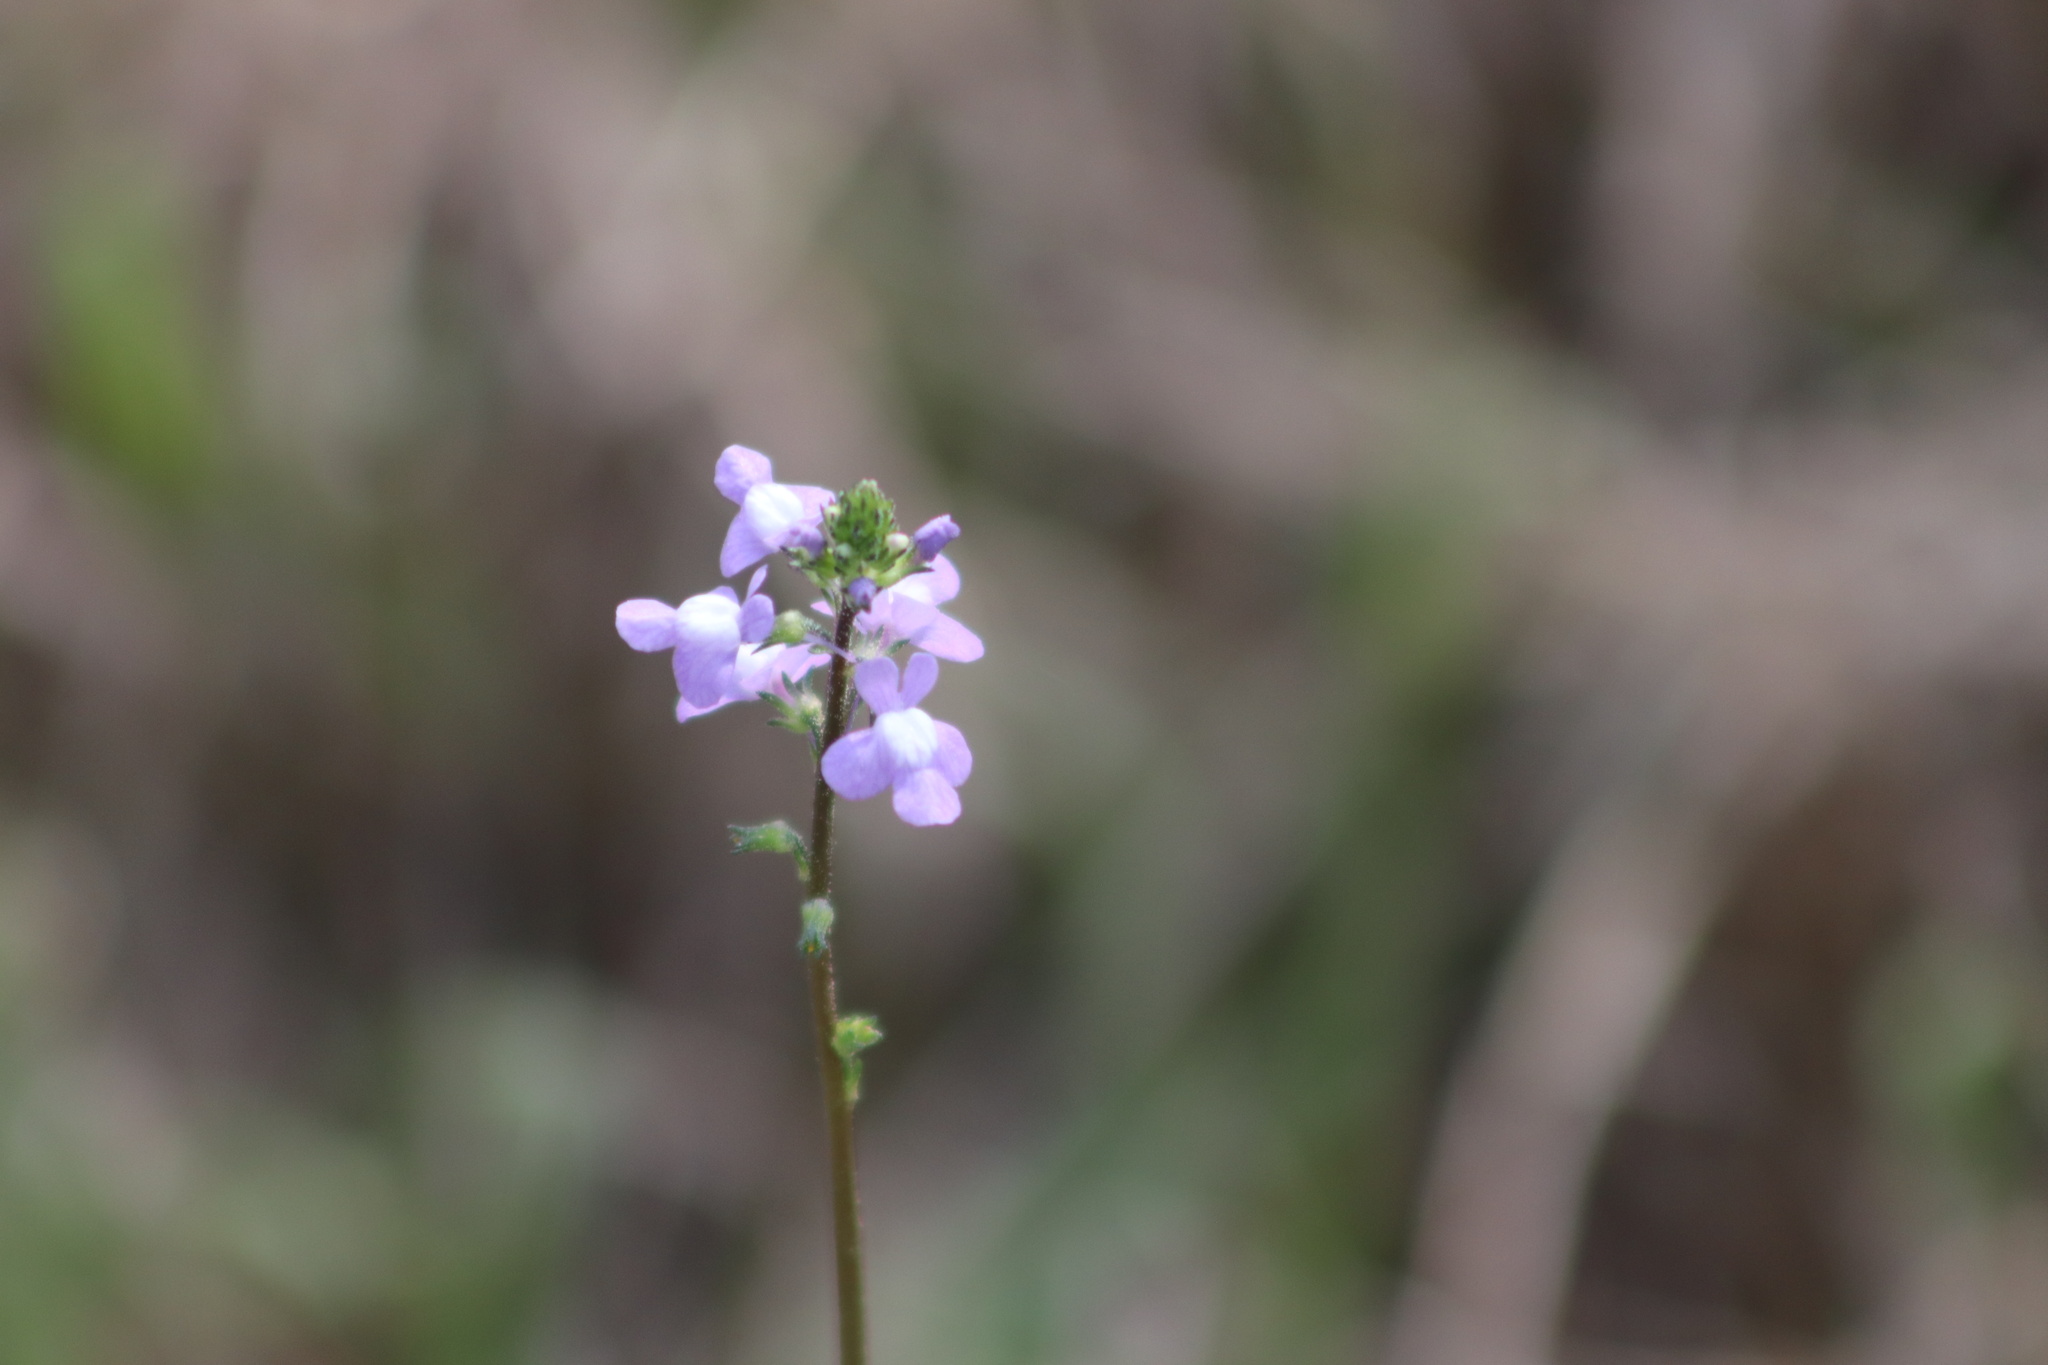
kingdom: Plantae
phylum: Tracheophyta
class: Magnoliopsida
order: Lamiales
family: Plantaginaceae
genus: Nuttallanthus
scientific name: Nuttallanthus canadensis
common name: Blue toadflax
